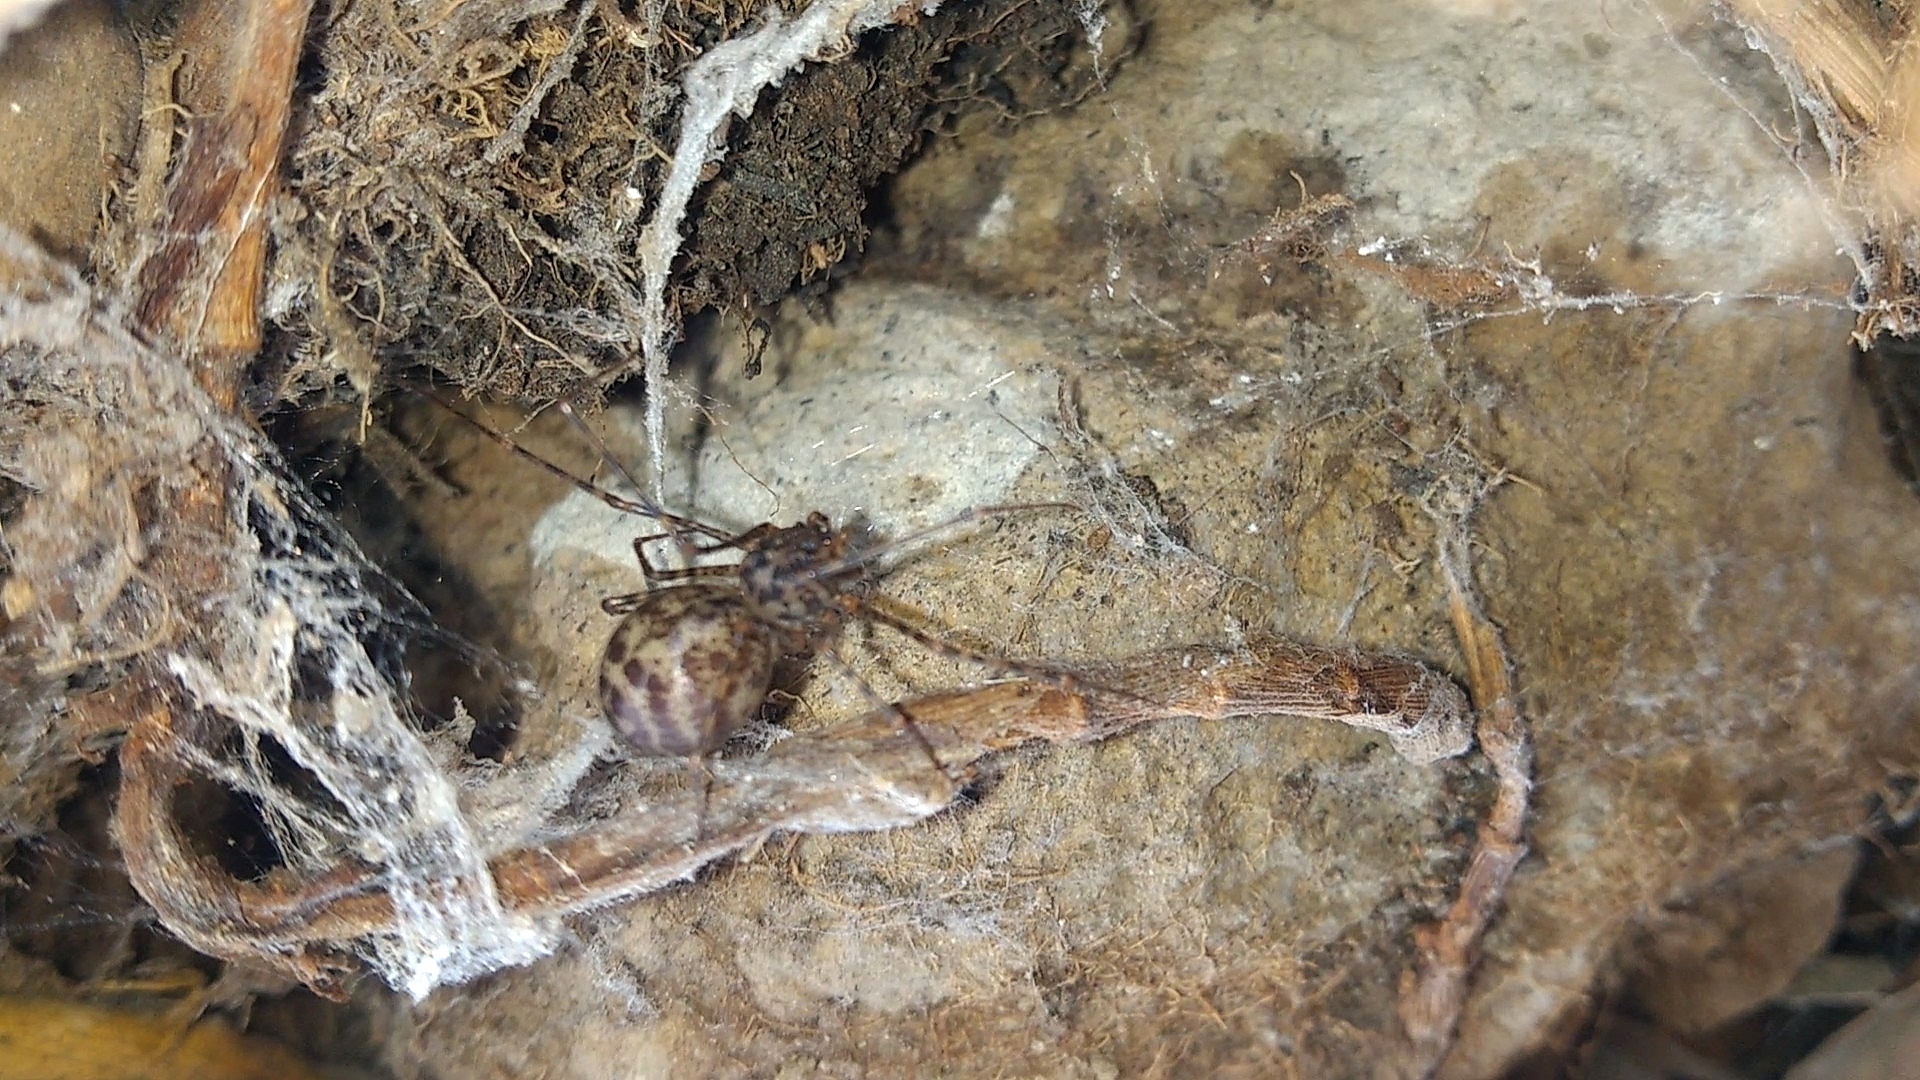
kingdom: Animalia
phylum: Arthropoda
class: Arachnida
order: Araneae
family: Scytodidae
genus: Scytodes
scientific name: Scytodes atlacoya
